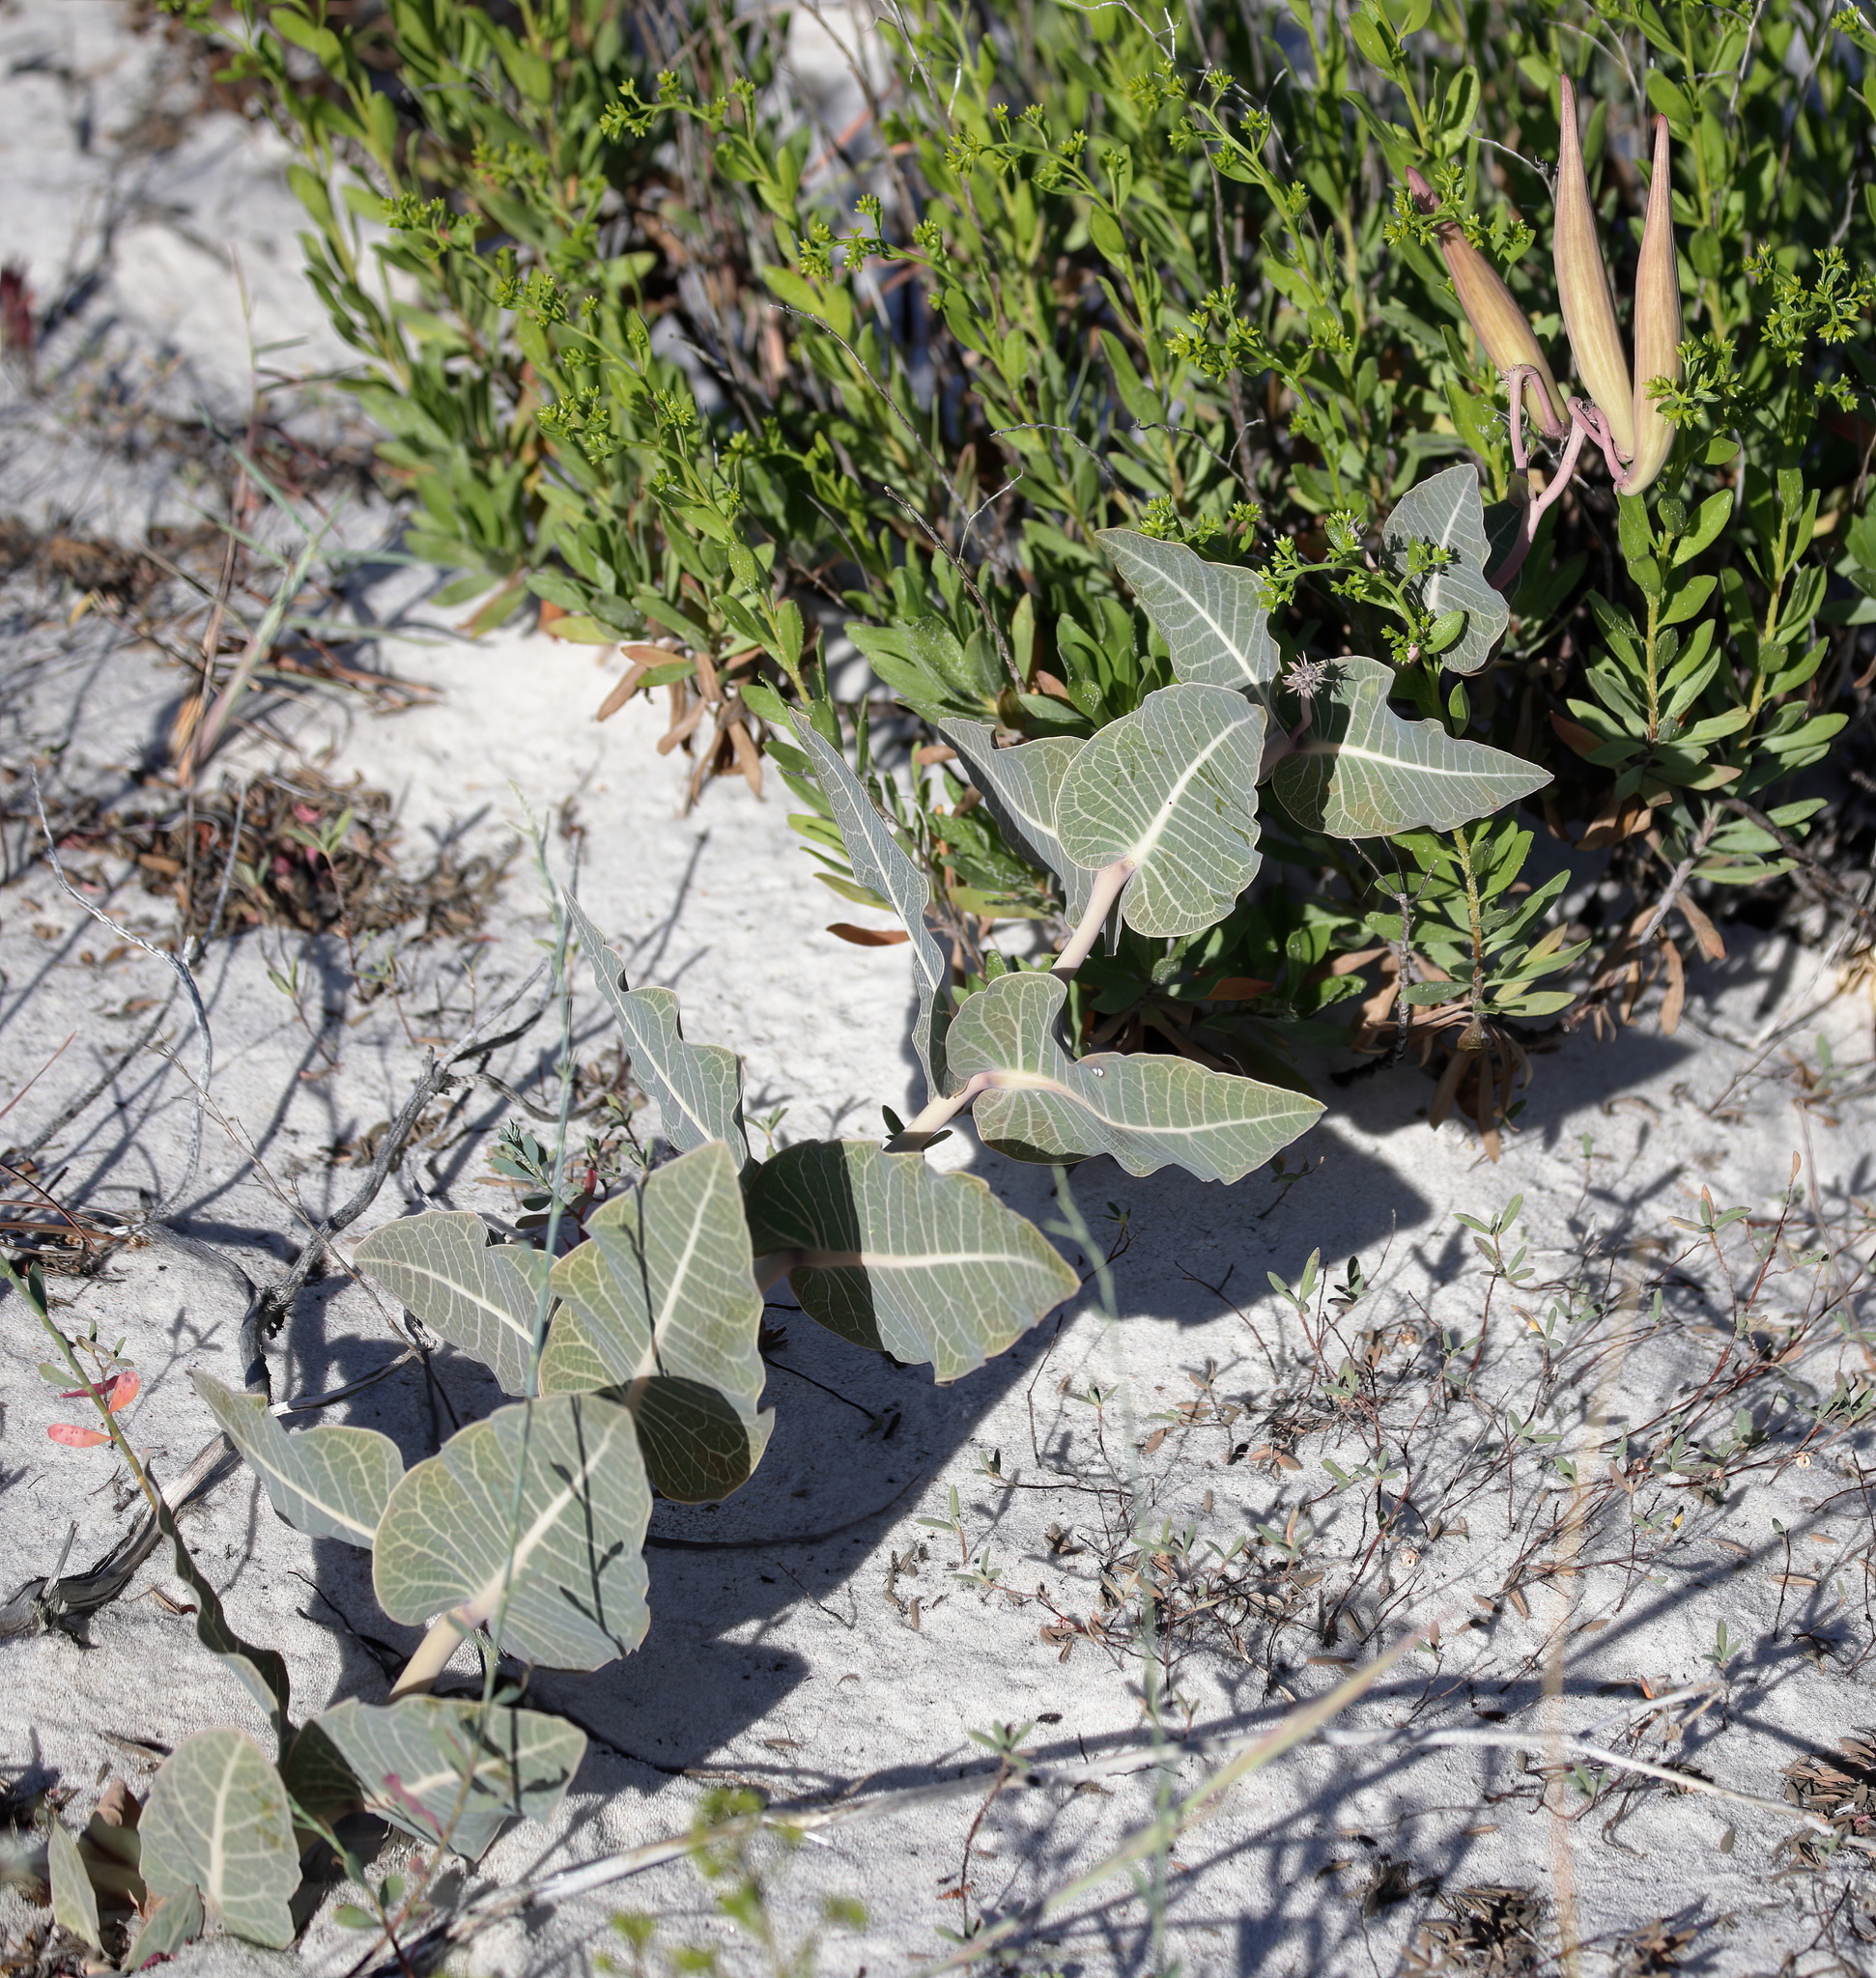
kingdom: Plantae
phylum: Tracheophyta
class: Magnoliopsida
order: Gentianales
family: Apocynaceae
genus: Asclepias
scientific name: Asclepias humistrata
